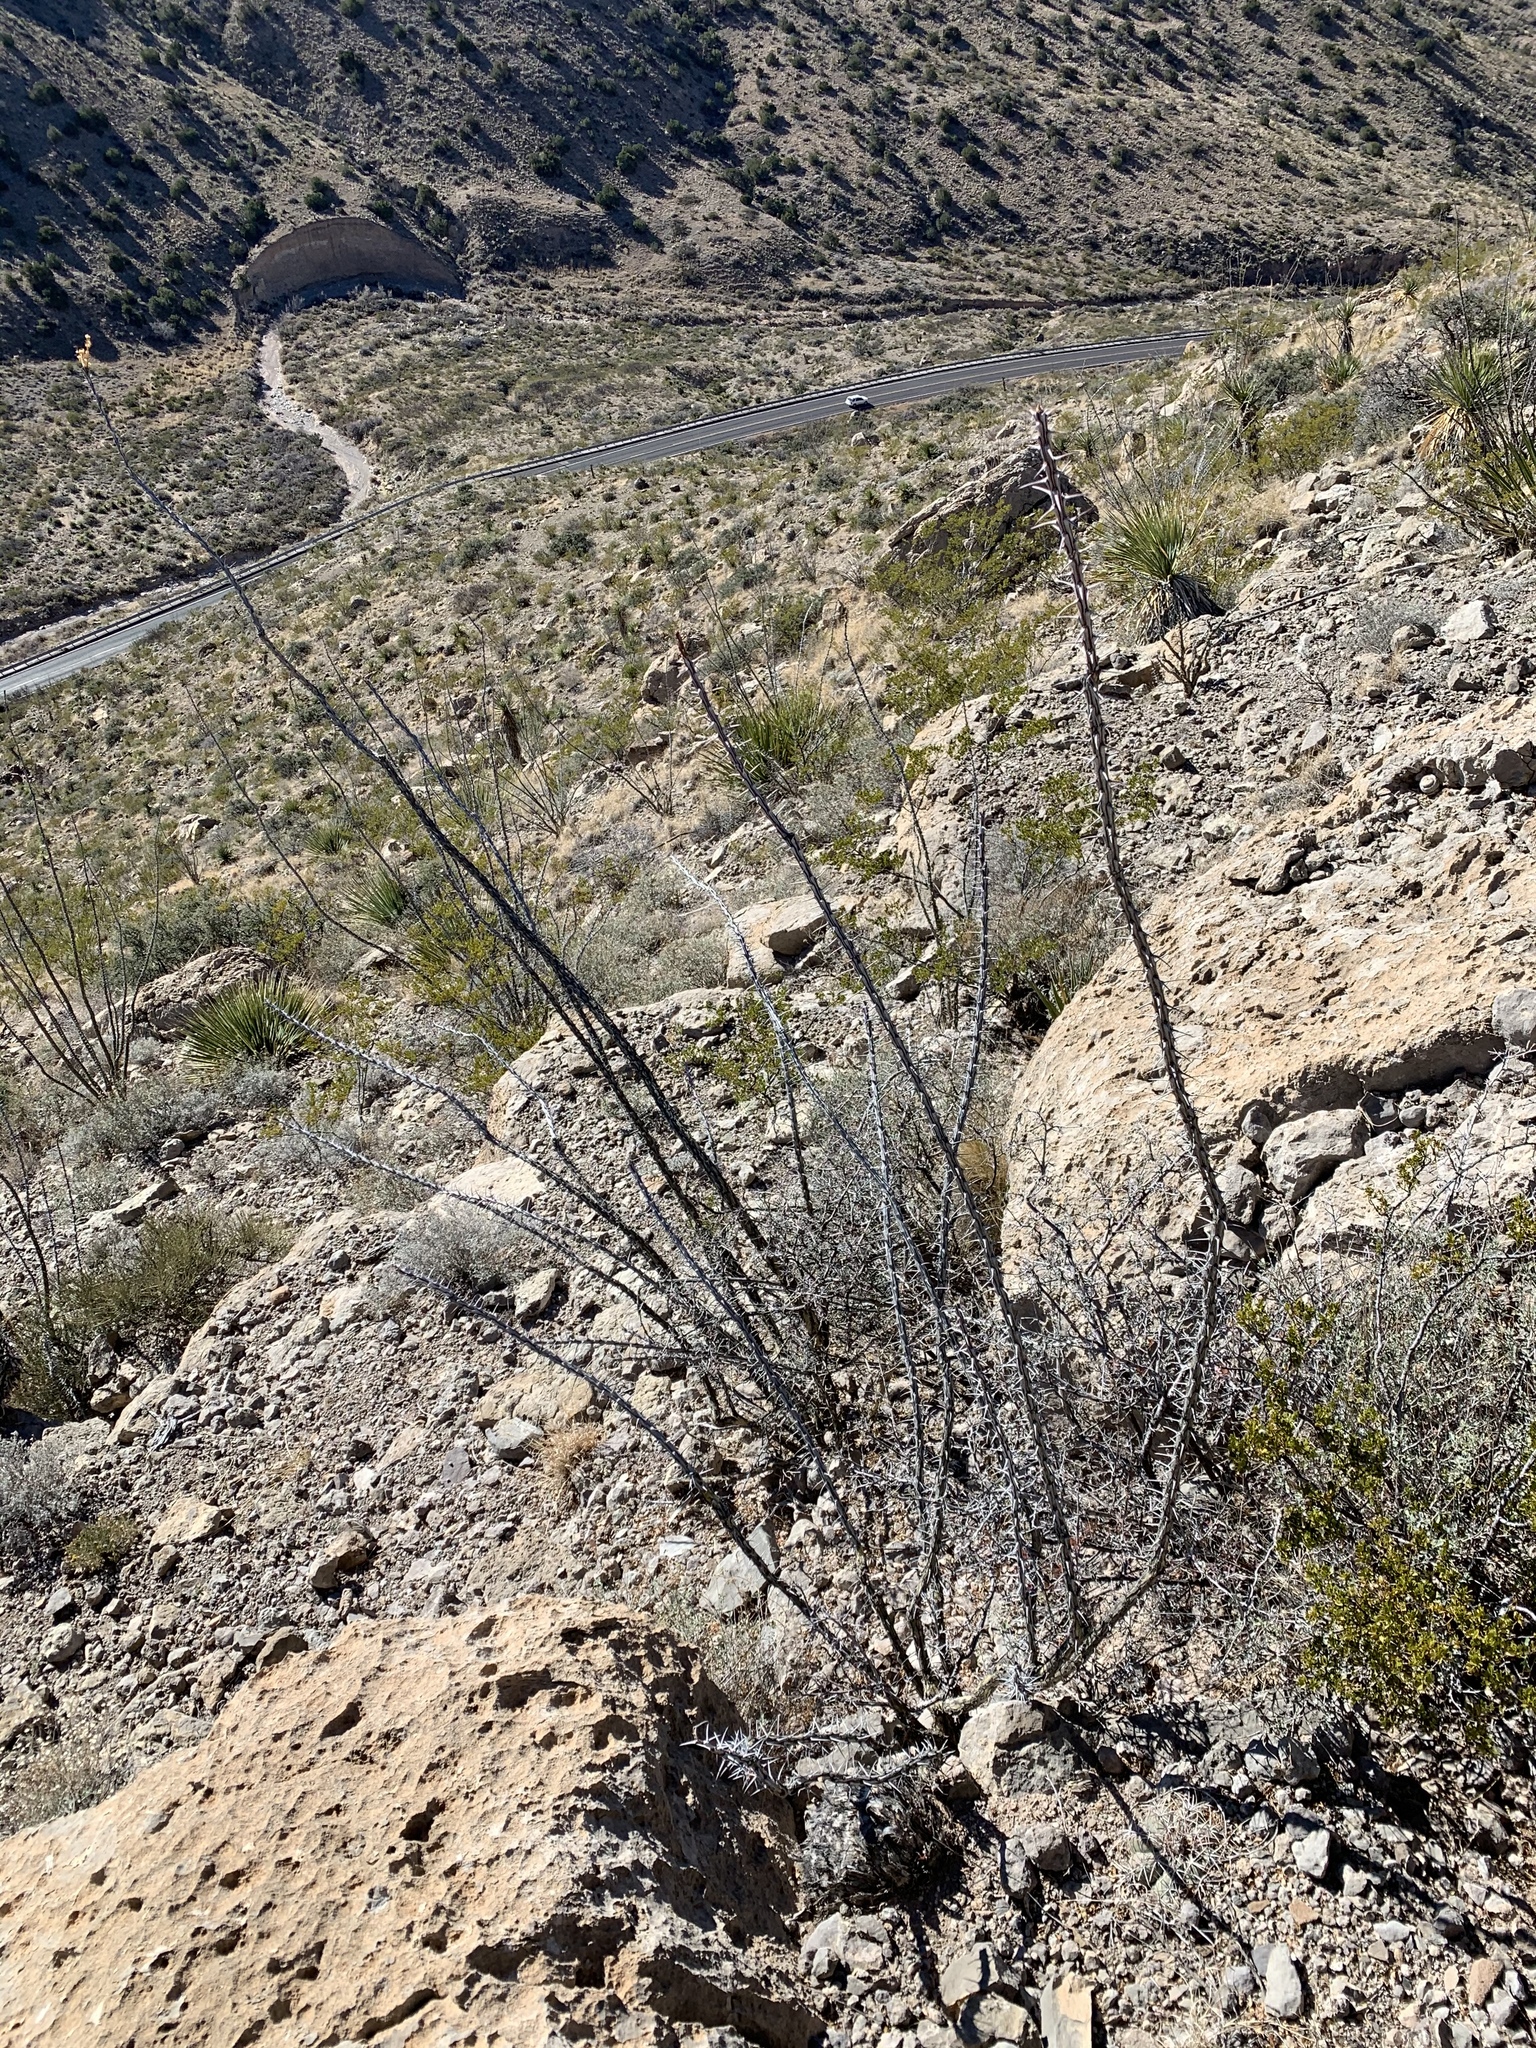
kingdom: Plantae
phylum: Tracheophyta
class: Magnoliopsida
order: Ericales
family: Fouquieriaceae
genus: Fouquieria
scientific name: Fouquieria splendens
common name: Vine-cactus
